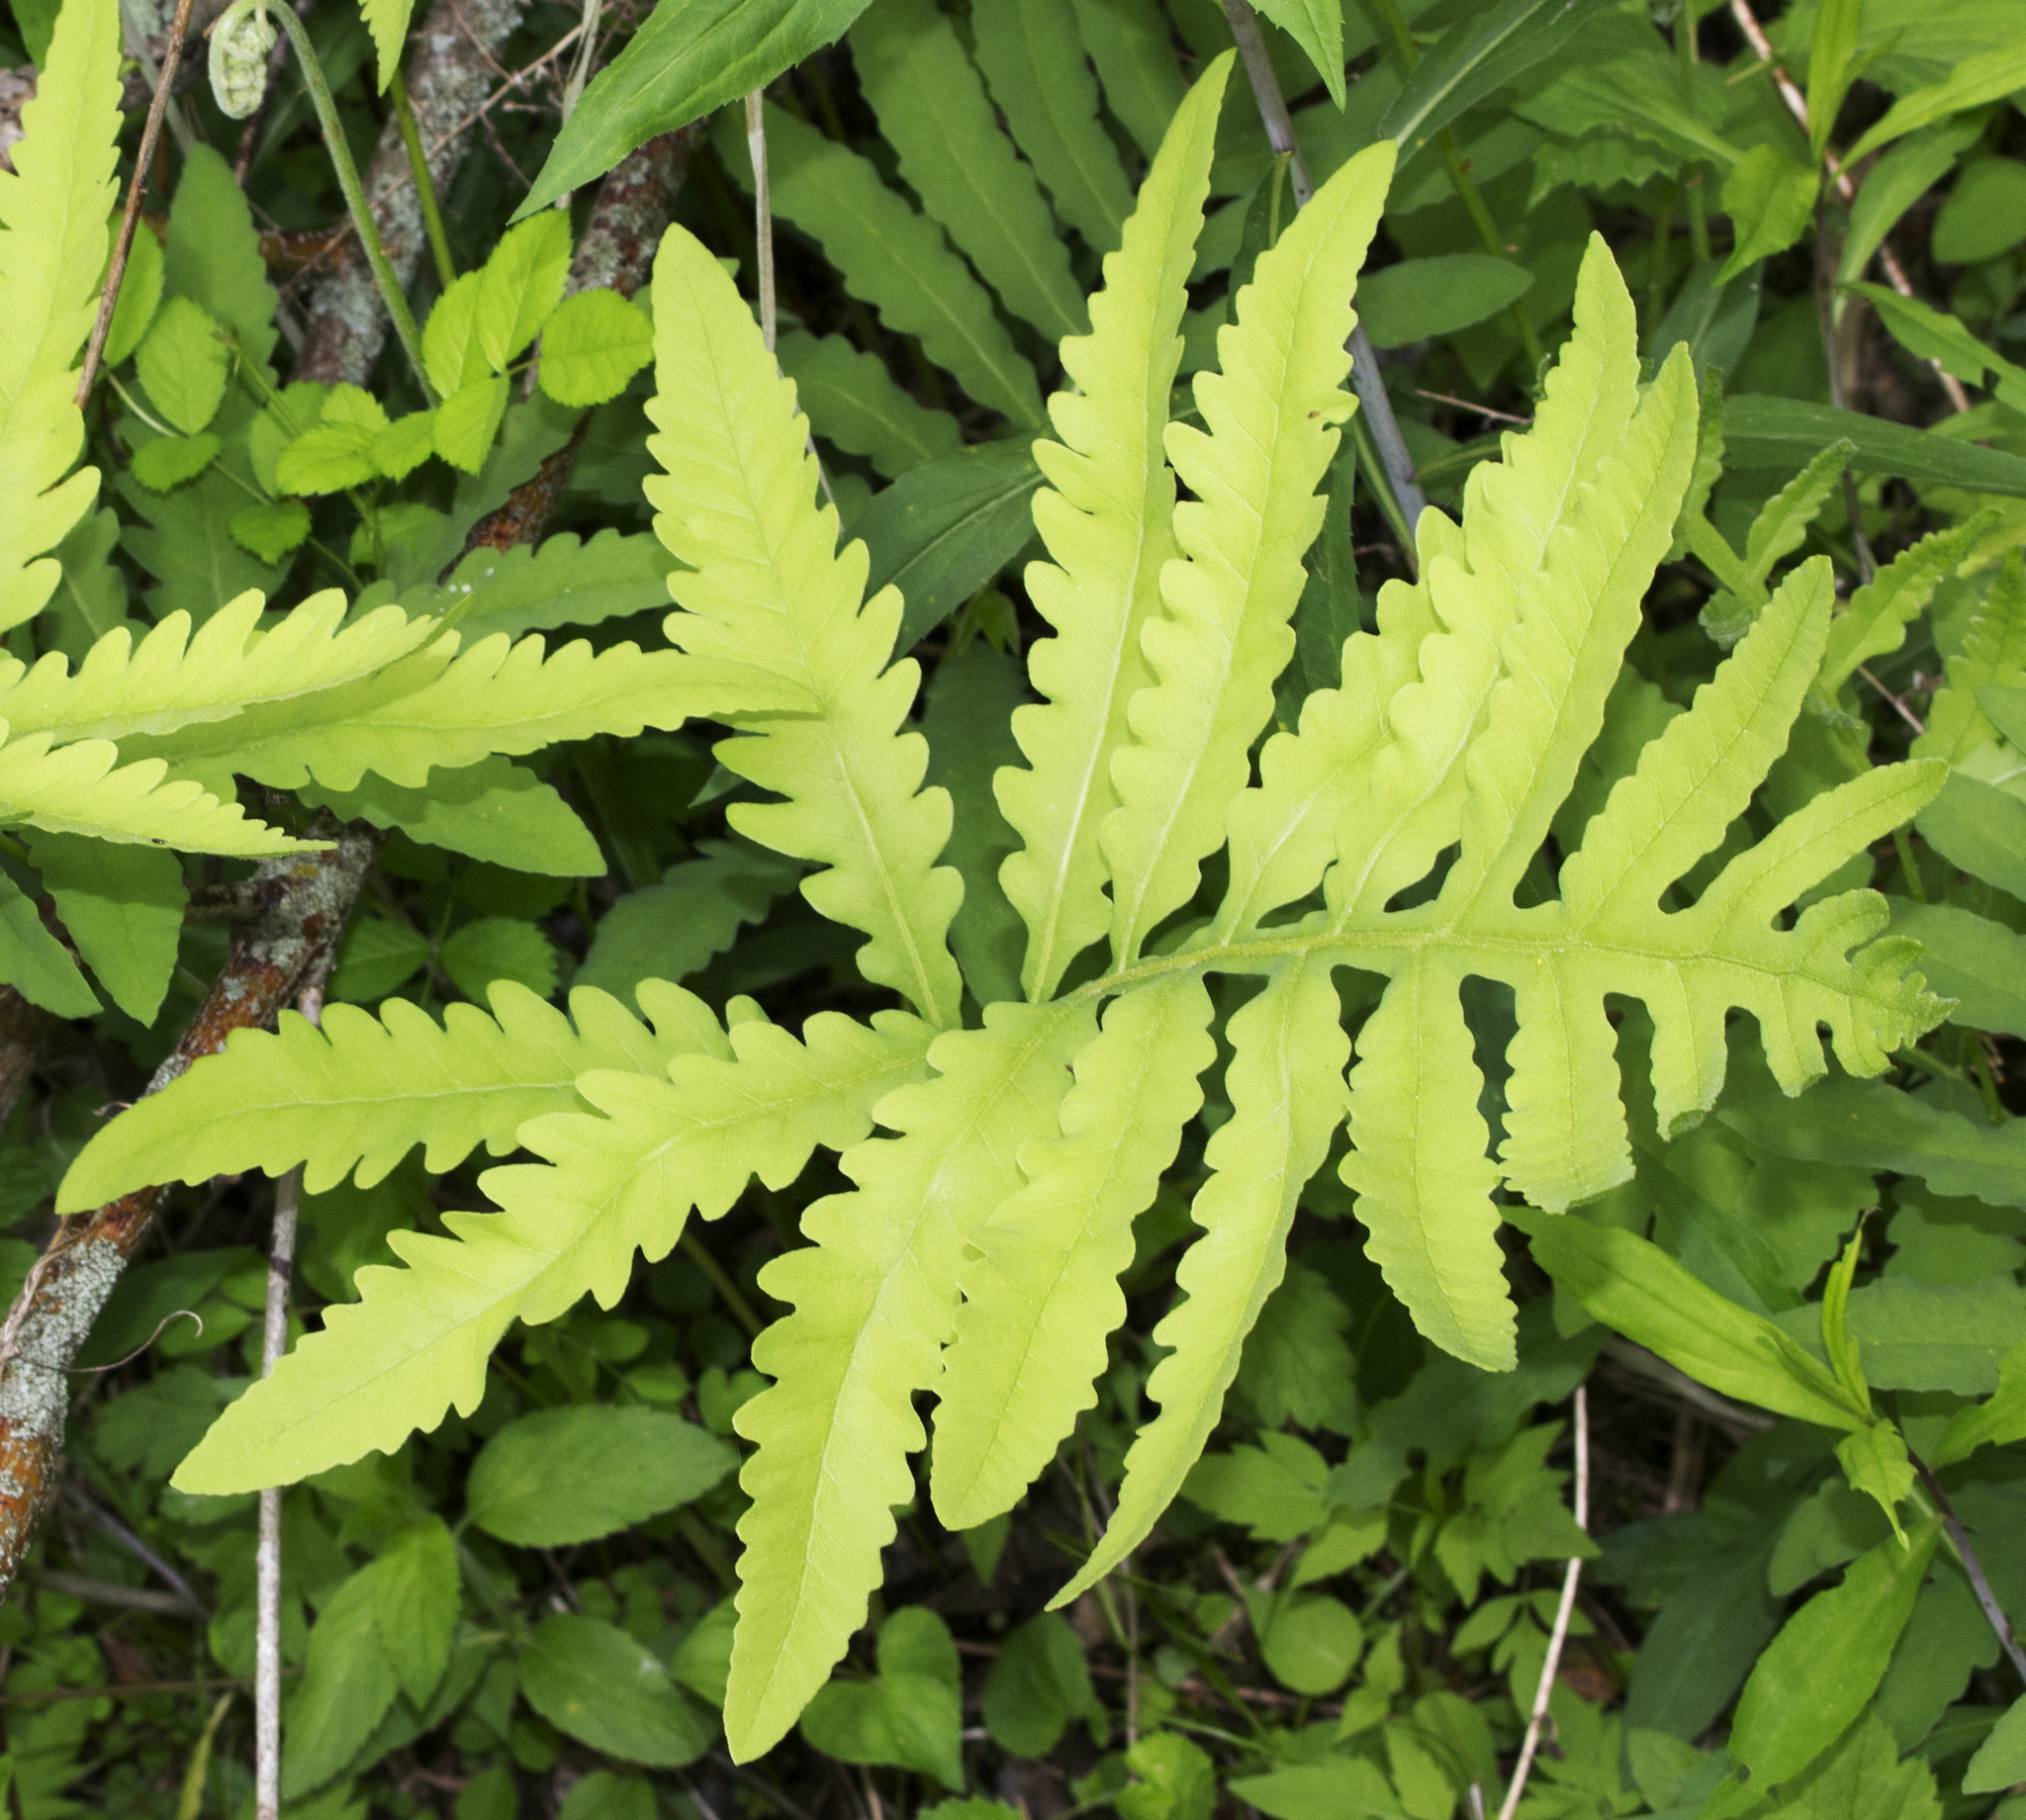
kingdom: Plantae
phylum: Tracheophyta
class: Polypodiopsida
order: Polypodiales
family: Onocleaceae
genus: Onoclea
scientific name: Onoclea sensibilis
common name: Sensitive fern
